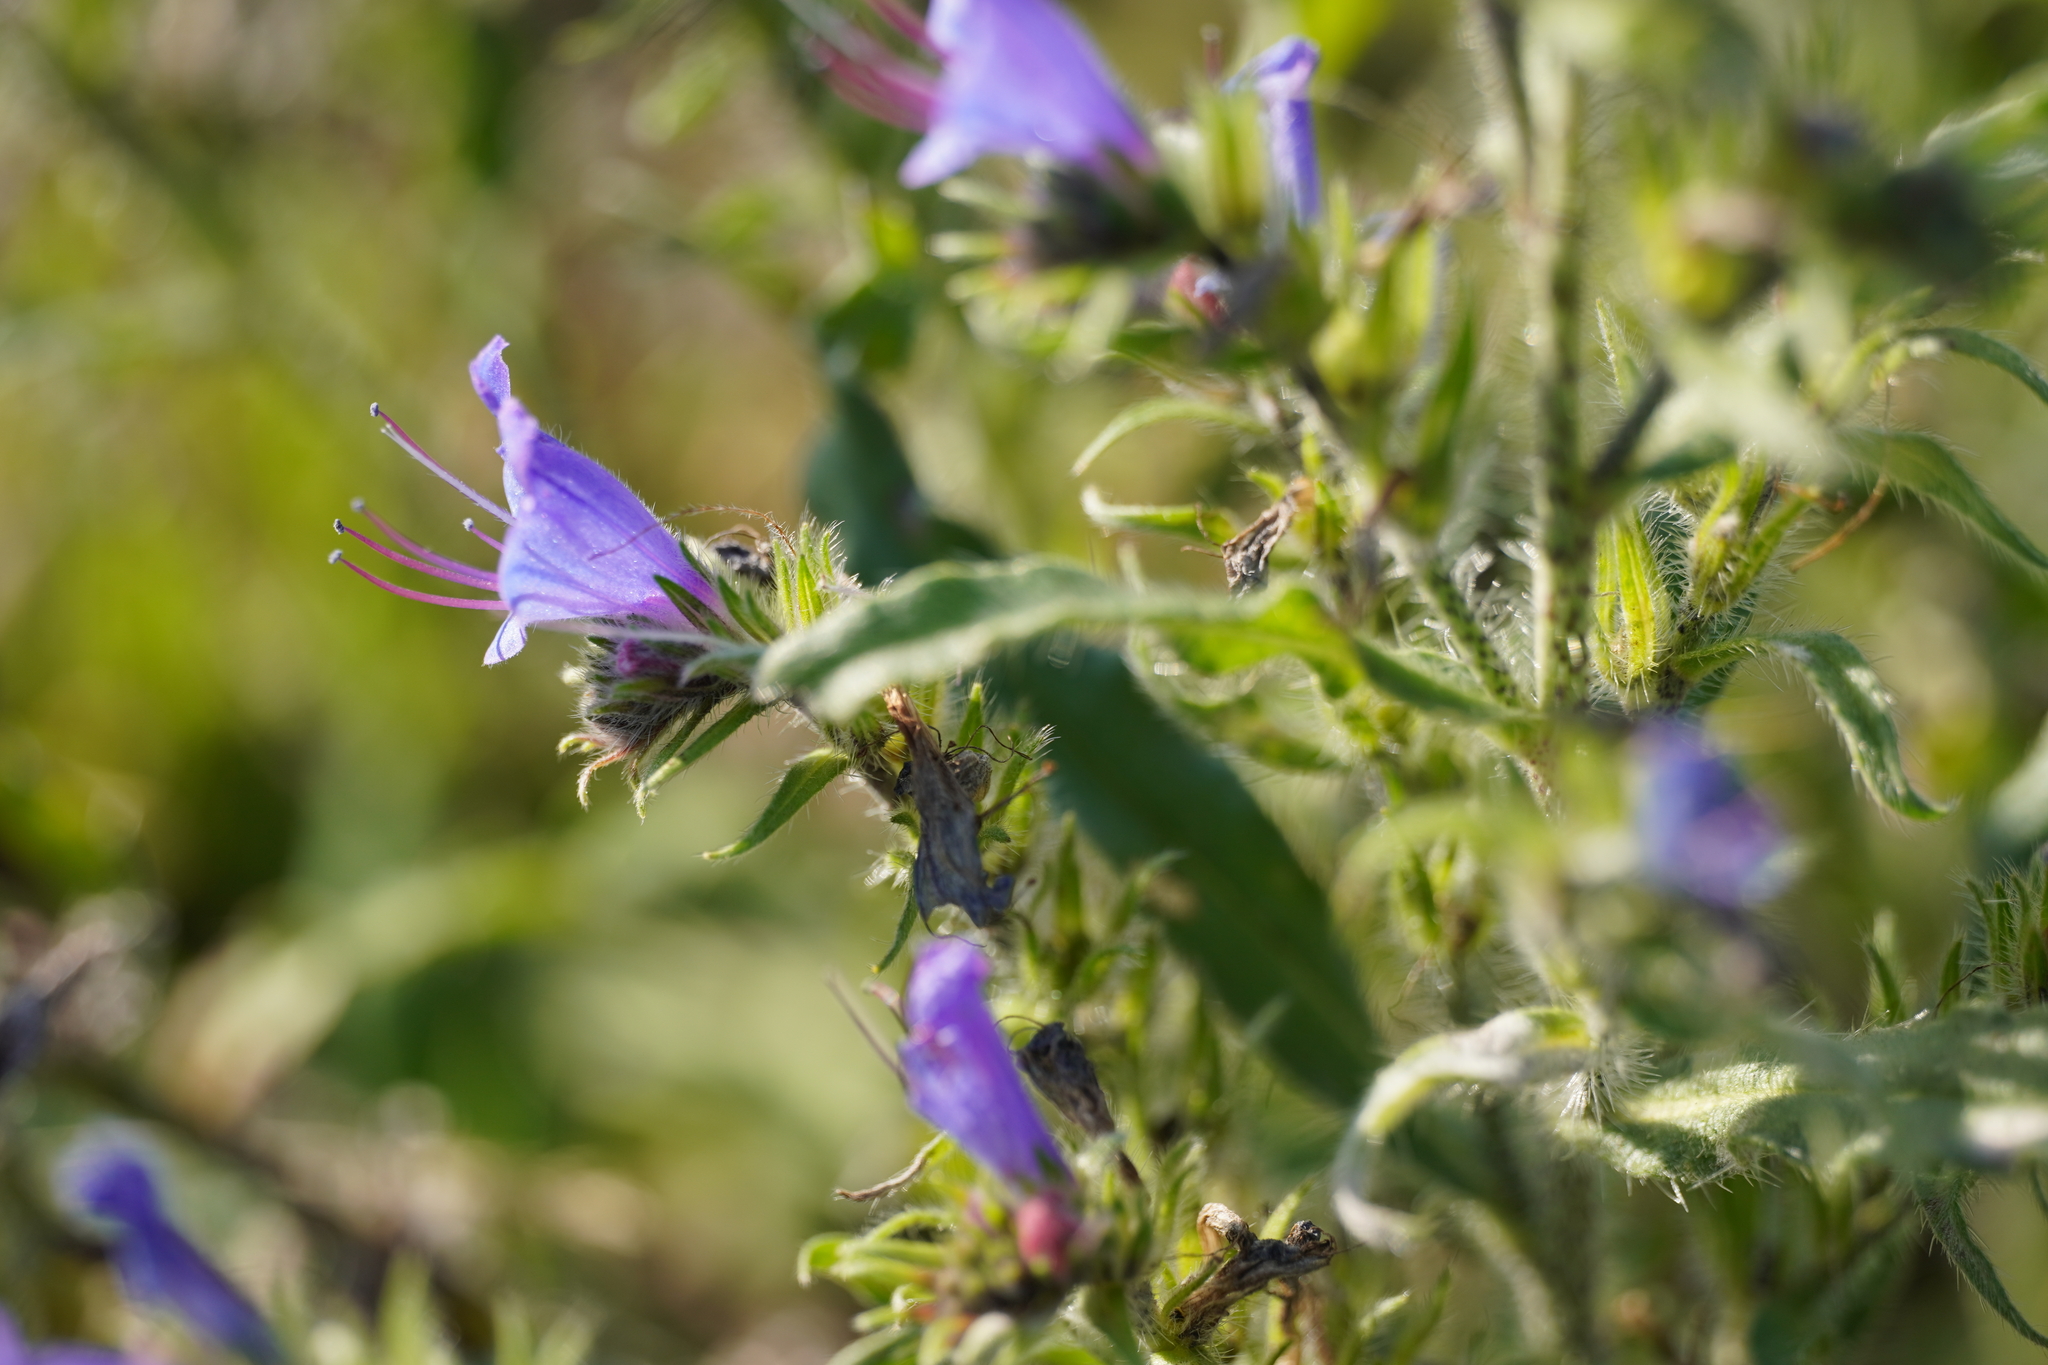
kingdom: Plantae
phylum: Tracheophyta
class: Magnoliopsida
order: Boraginales
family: Boraginaceae
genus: Echium
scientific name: Echium vulgare
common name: Common viper's bugloss
